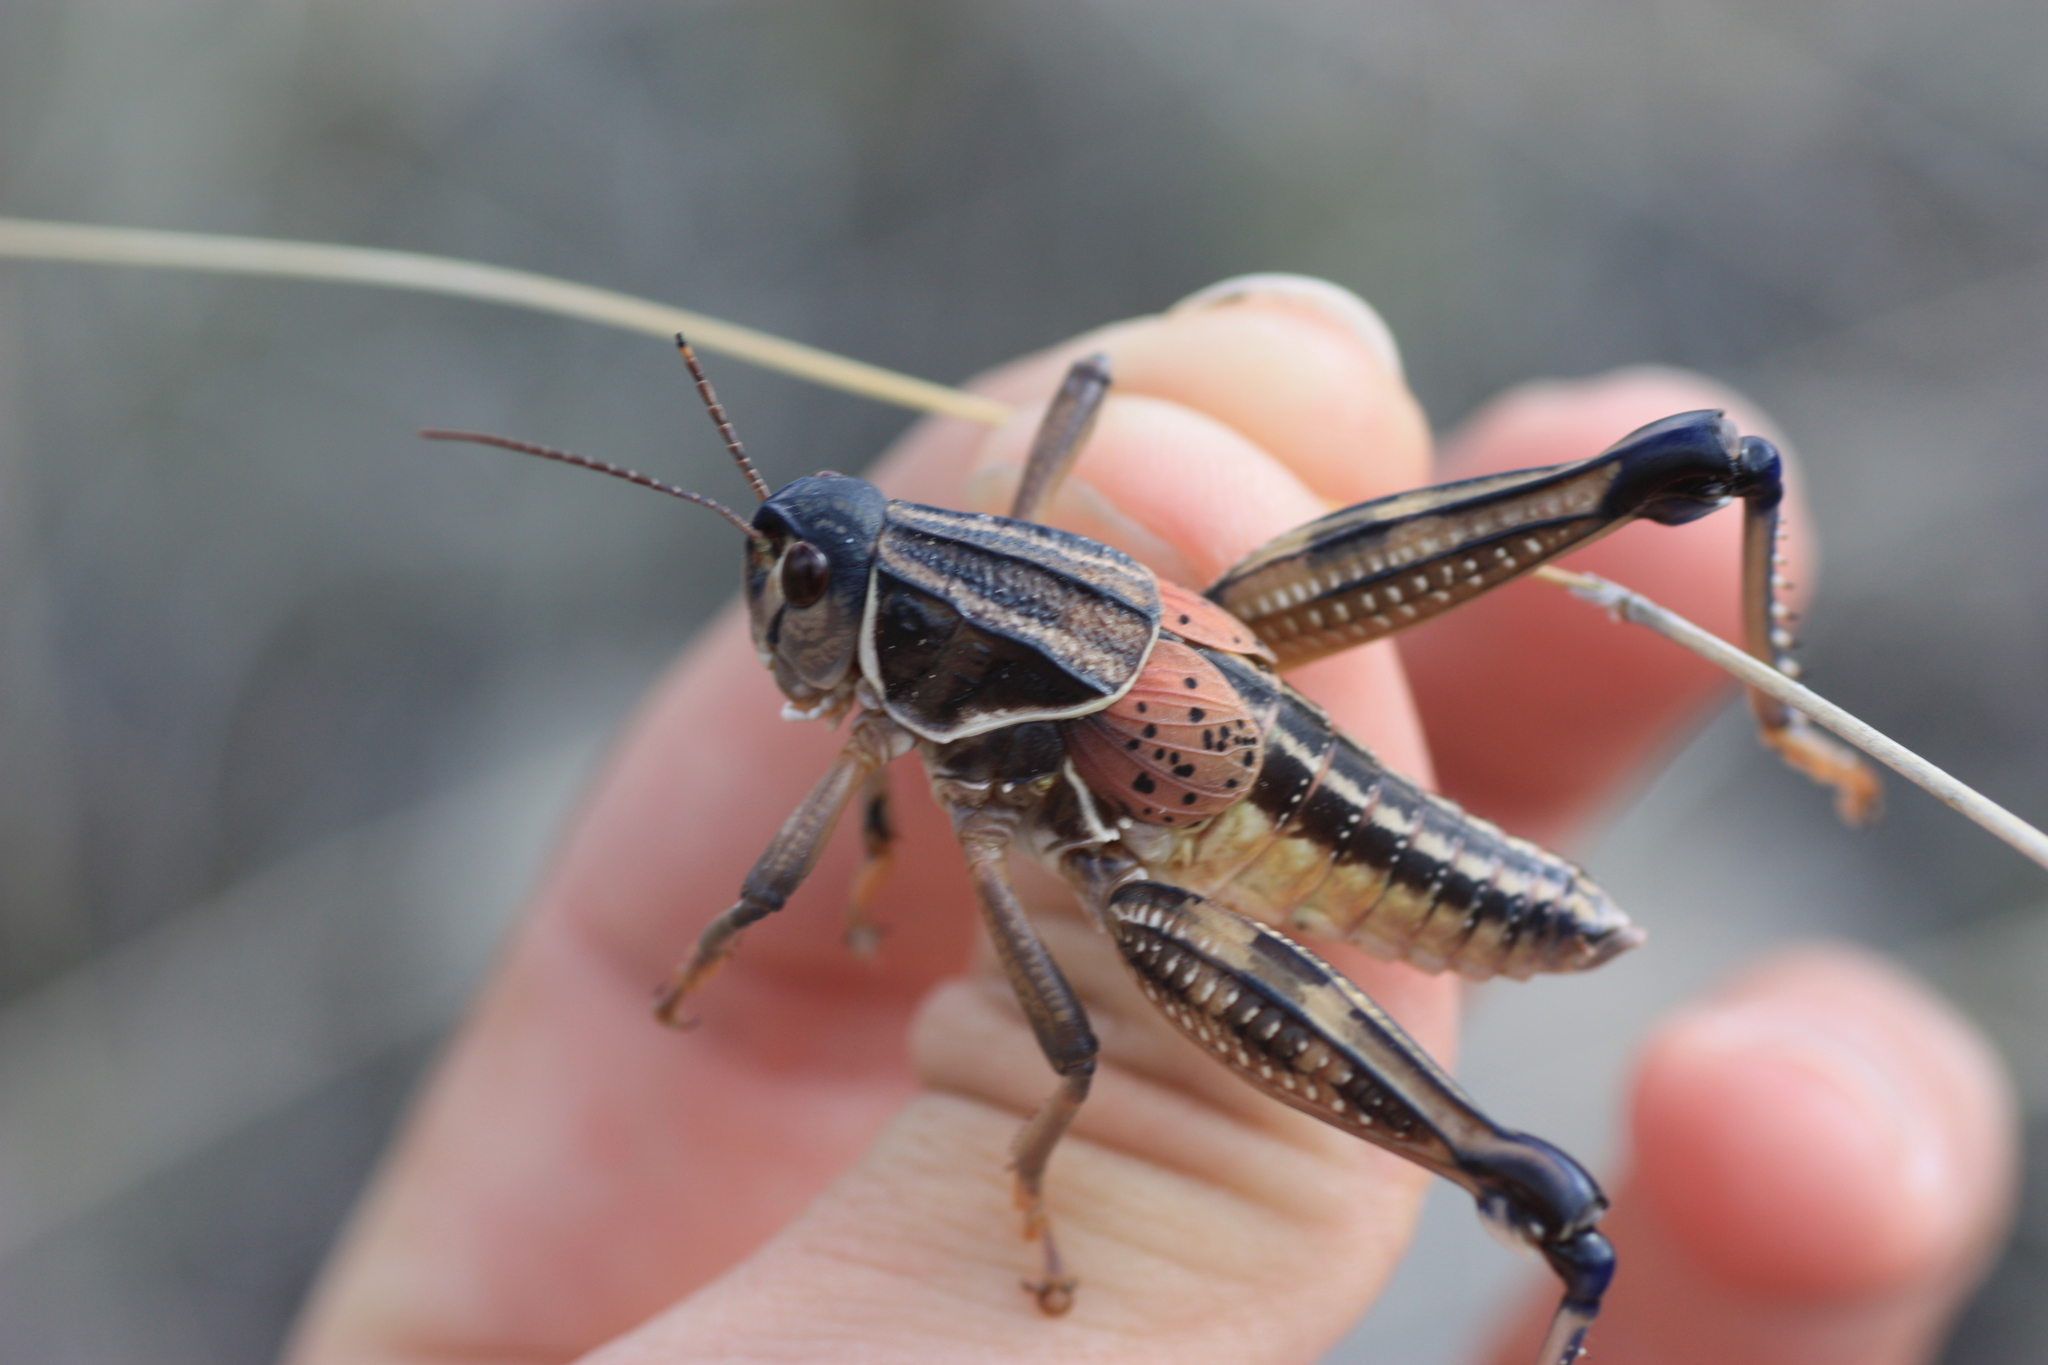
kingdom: Animalia
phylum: Arthropoda
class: Insecta
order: Orthoptera
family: Romaleidae
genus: Brachystola
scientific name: Brachystola magna
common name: Plains lubber grasshopper
